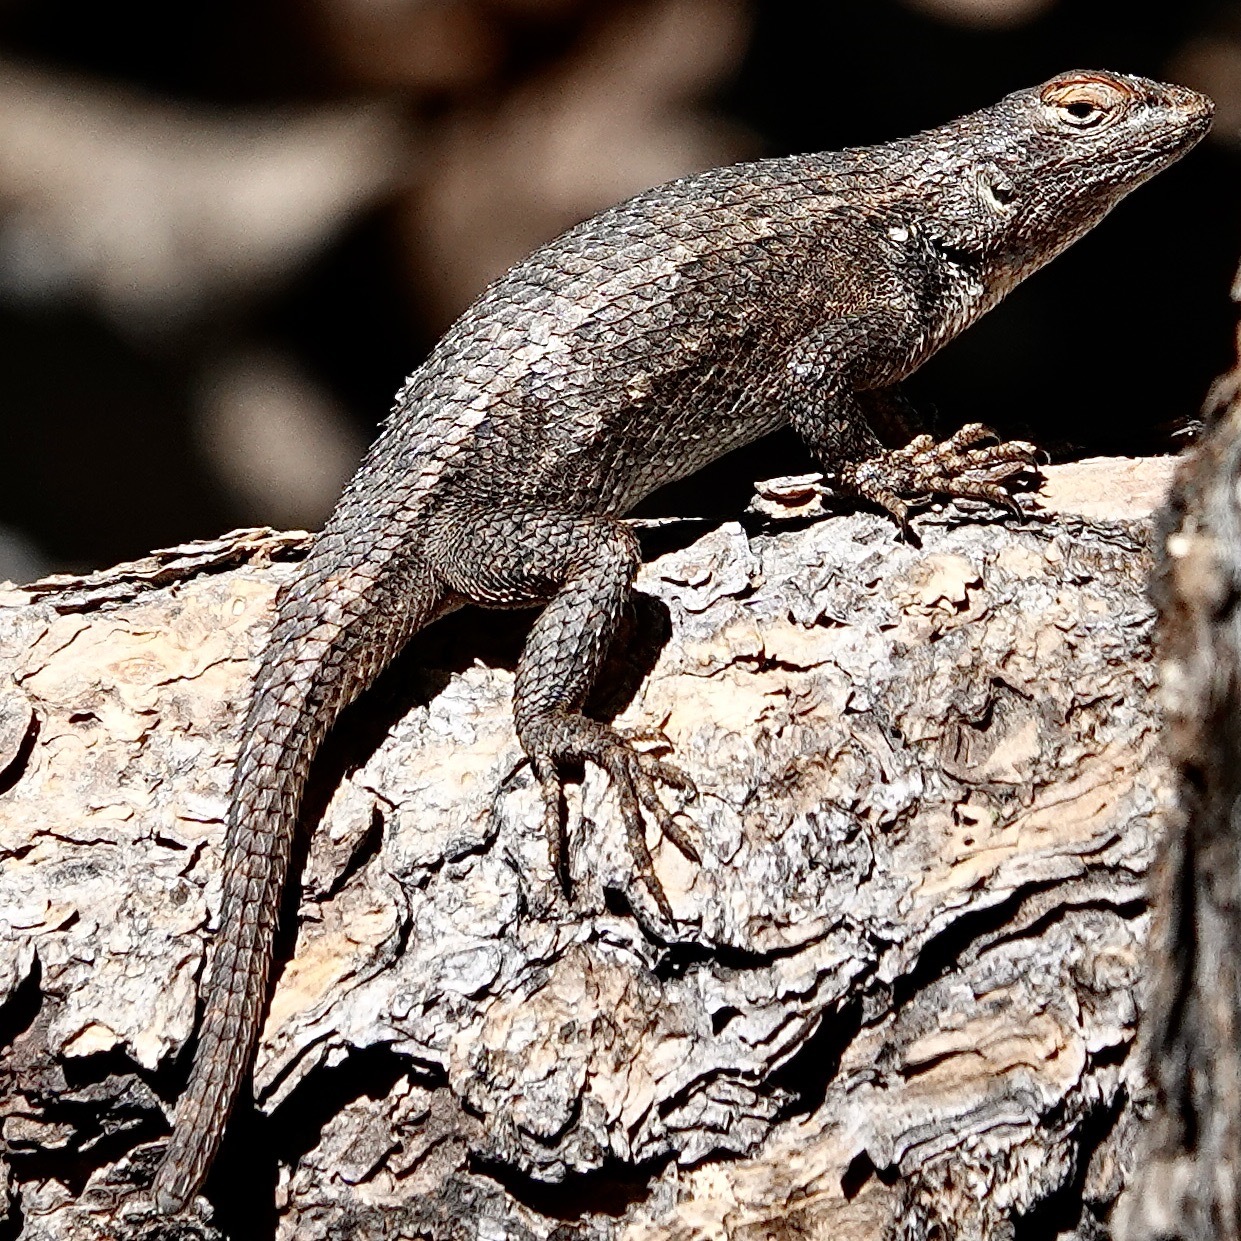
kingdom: Animalia
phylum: Chordata
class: Squamata
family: Phrynosomatidae
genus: Sceloporus
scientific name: Sceloporus tristichus
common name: Plateau fence lizard
